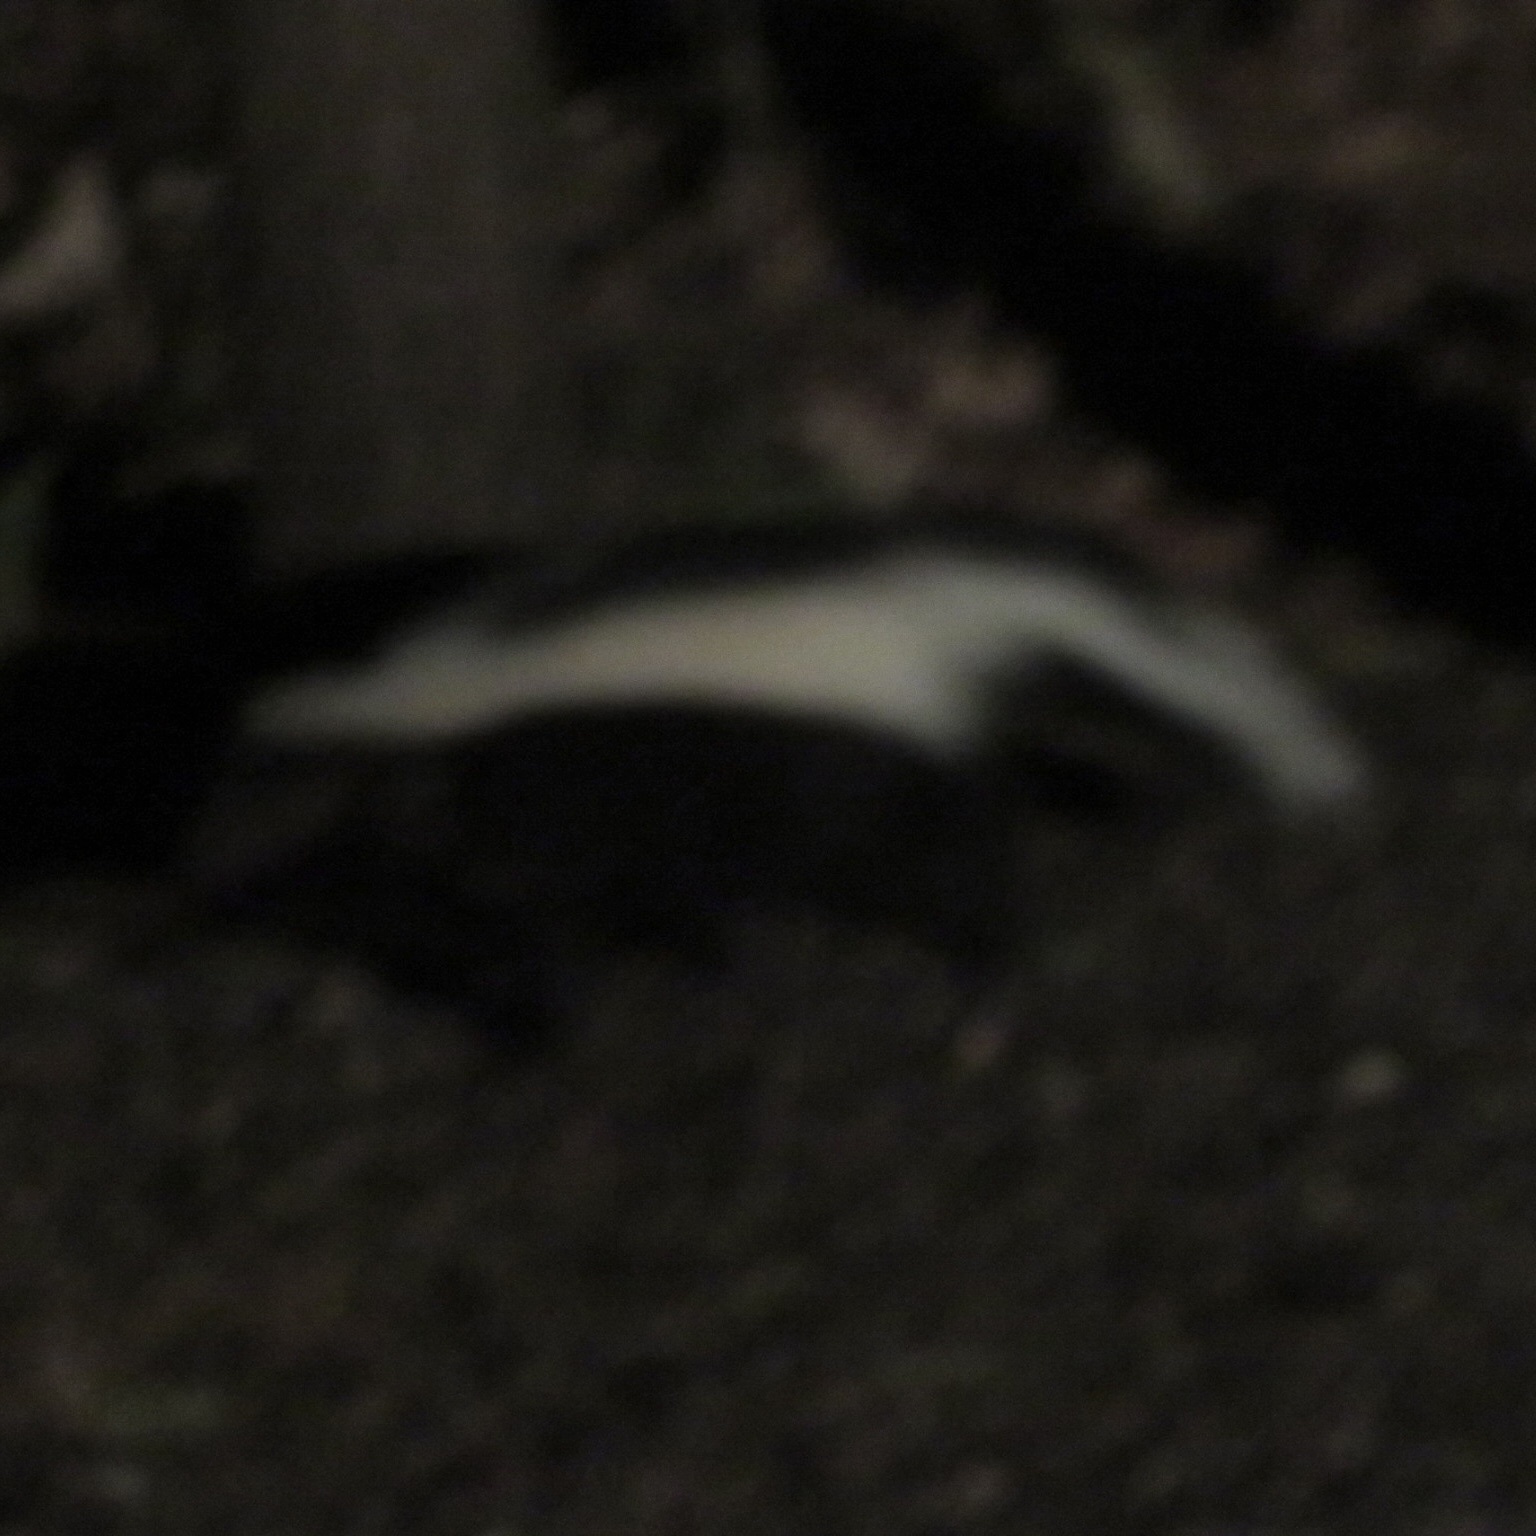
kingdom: Animalia
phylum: Chordata
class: Mammalia
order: Carnivora
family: Mephitidae
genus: Mephitis
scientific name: Mephitis mephitis
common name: Striped skunk
